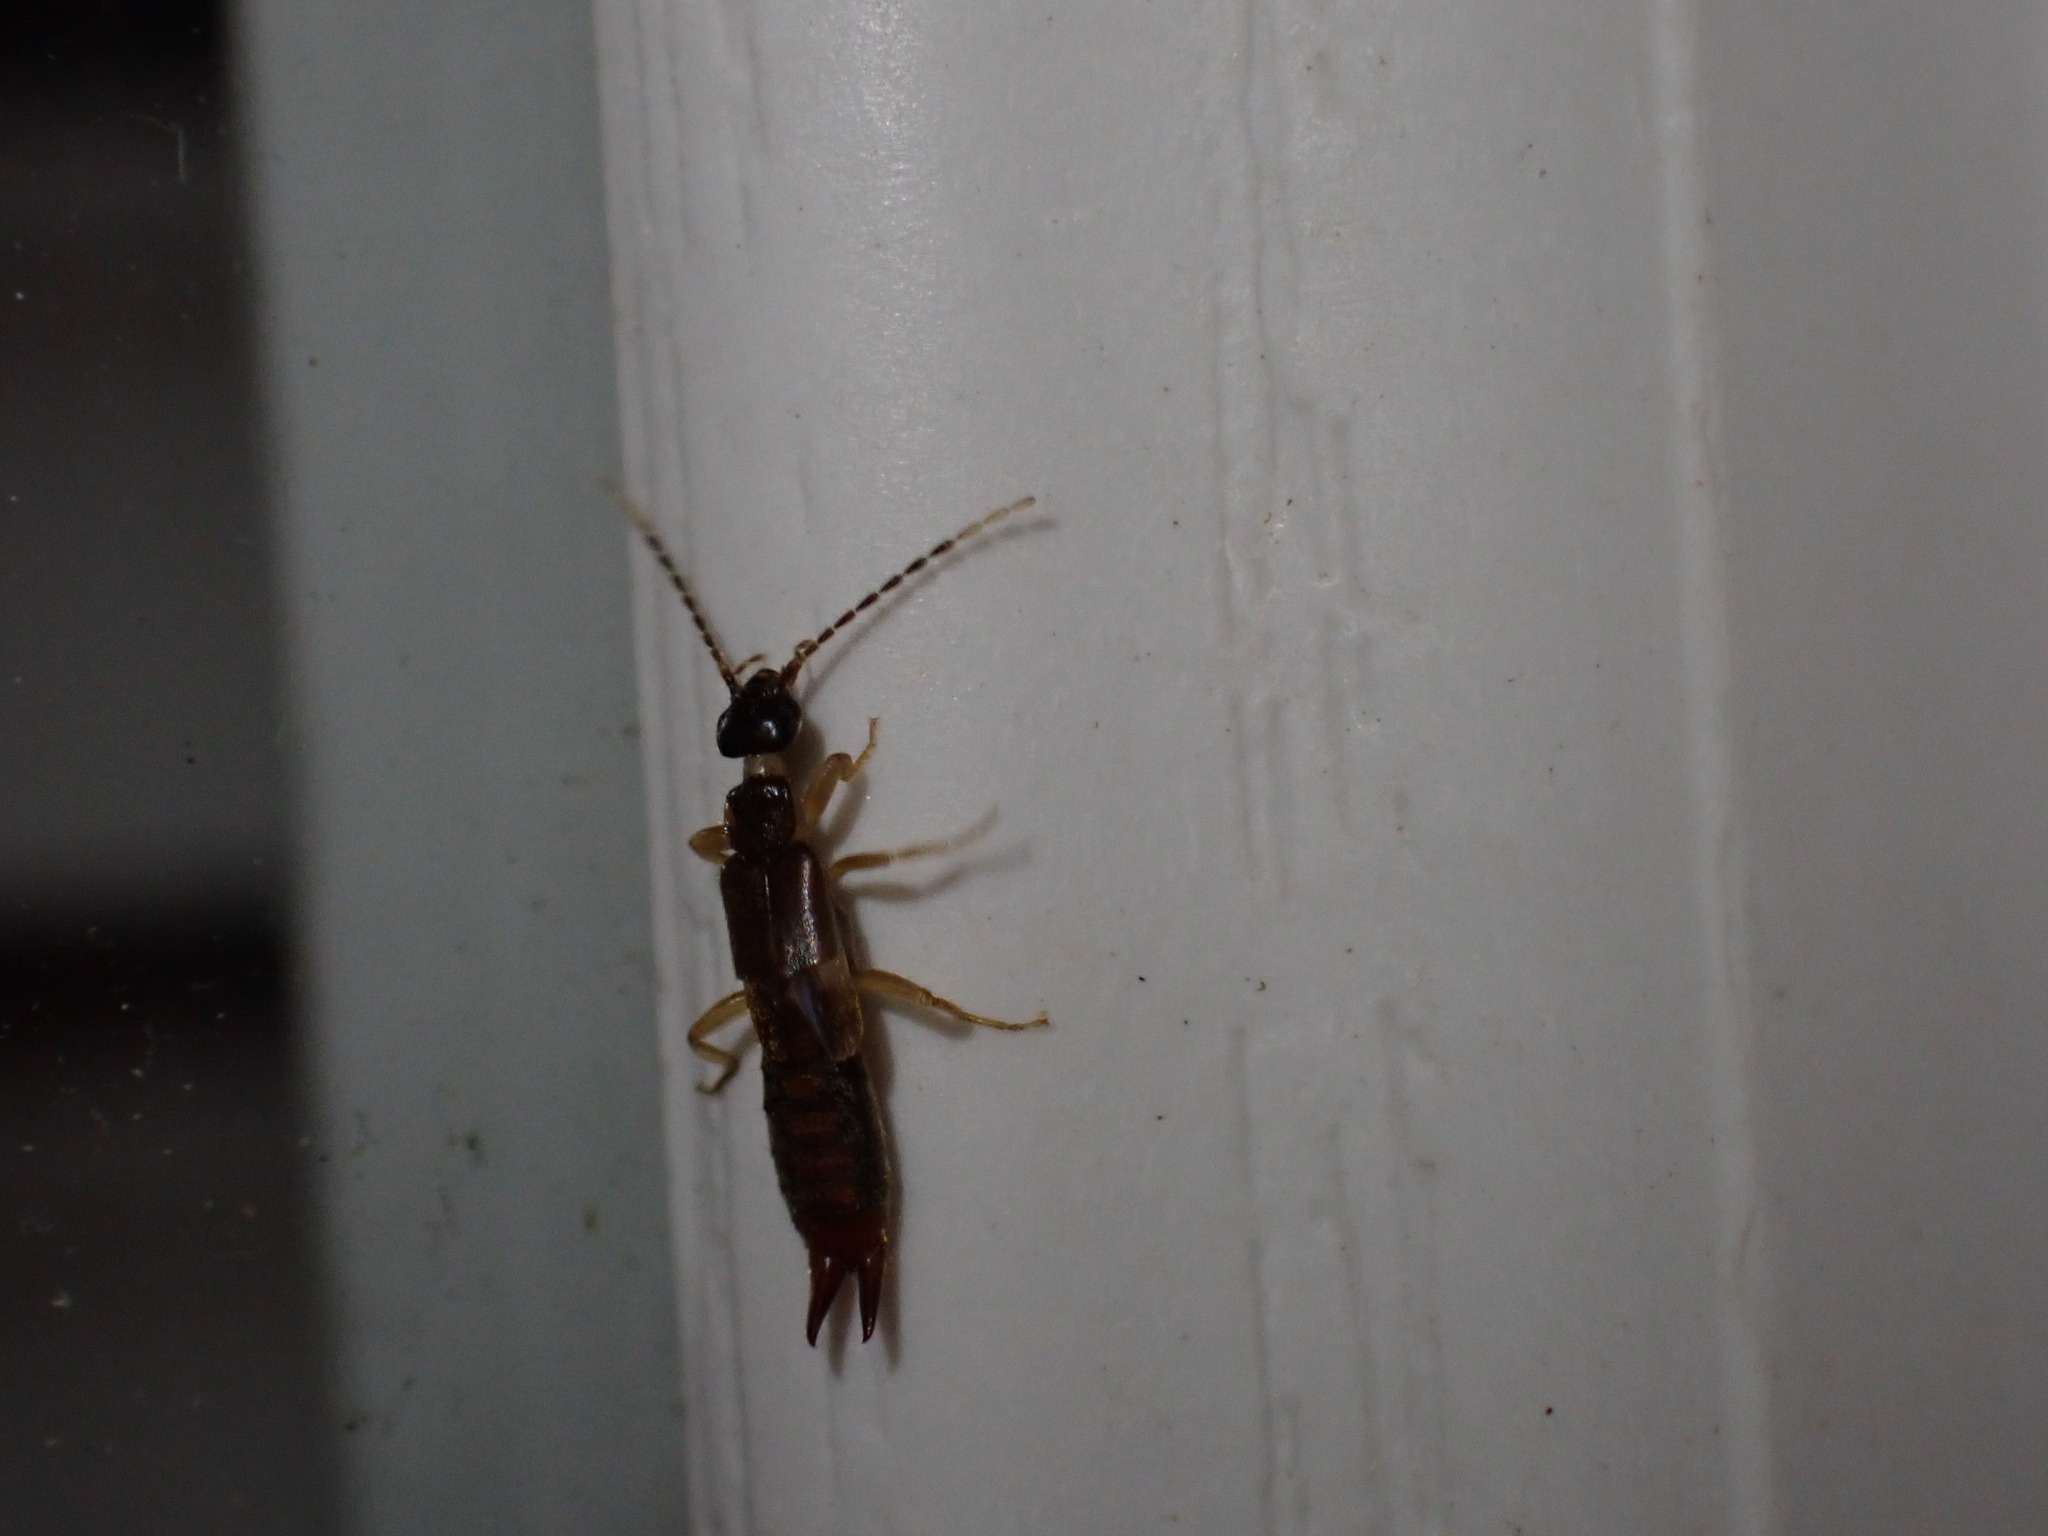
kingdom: Animalia
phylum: Arthropoda
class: Insecta
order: Dermaptera
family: Spongiphoridae
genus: Labia
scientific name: Labia minor
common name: Lesser earwig
